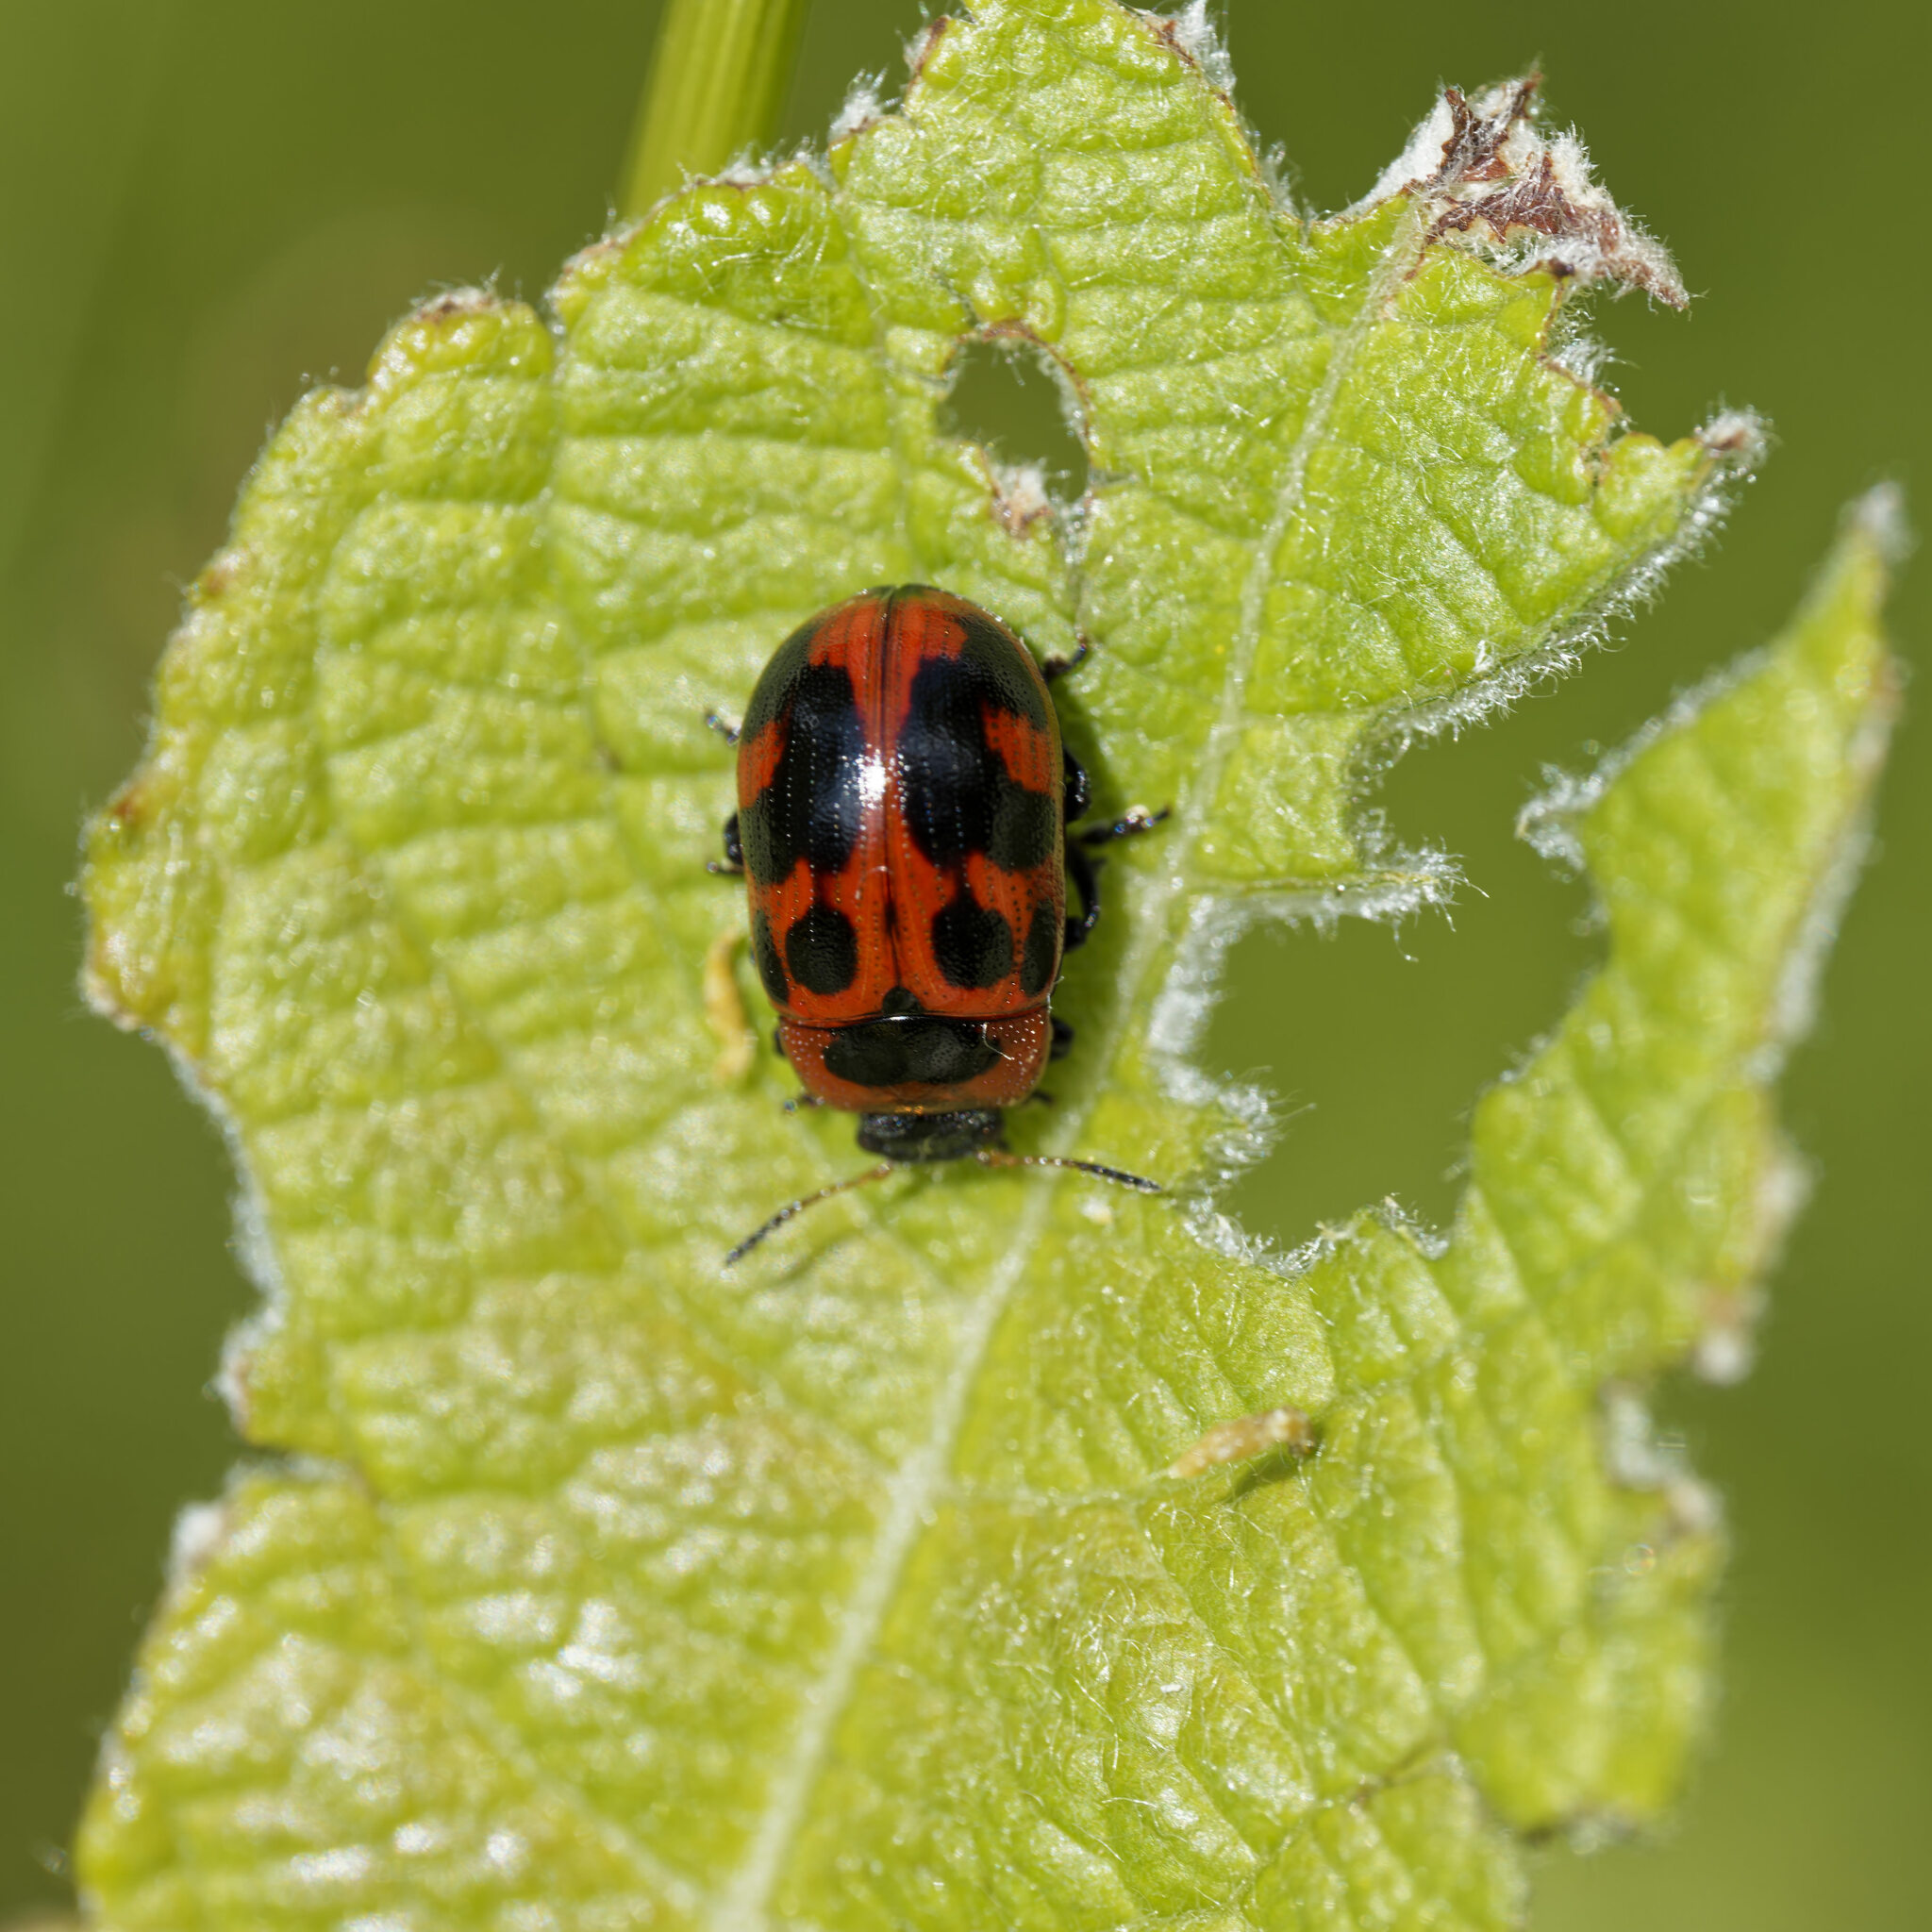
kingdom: Animalia
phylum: Arthropoda
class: Insecta
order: Coleoptera
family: Chrysomelidae
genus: Gonioctena
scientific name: Gonioctena viminalis
